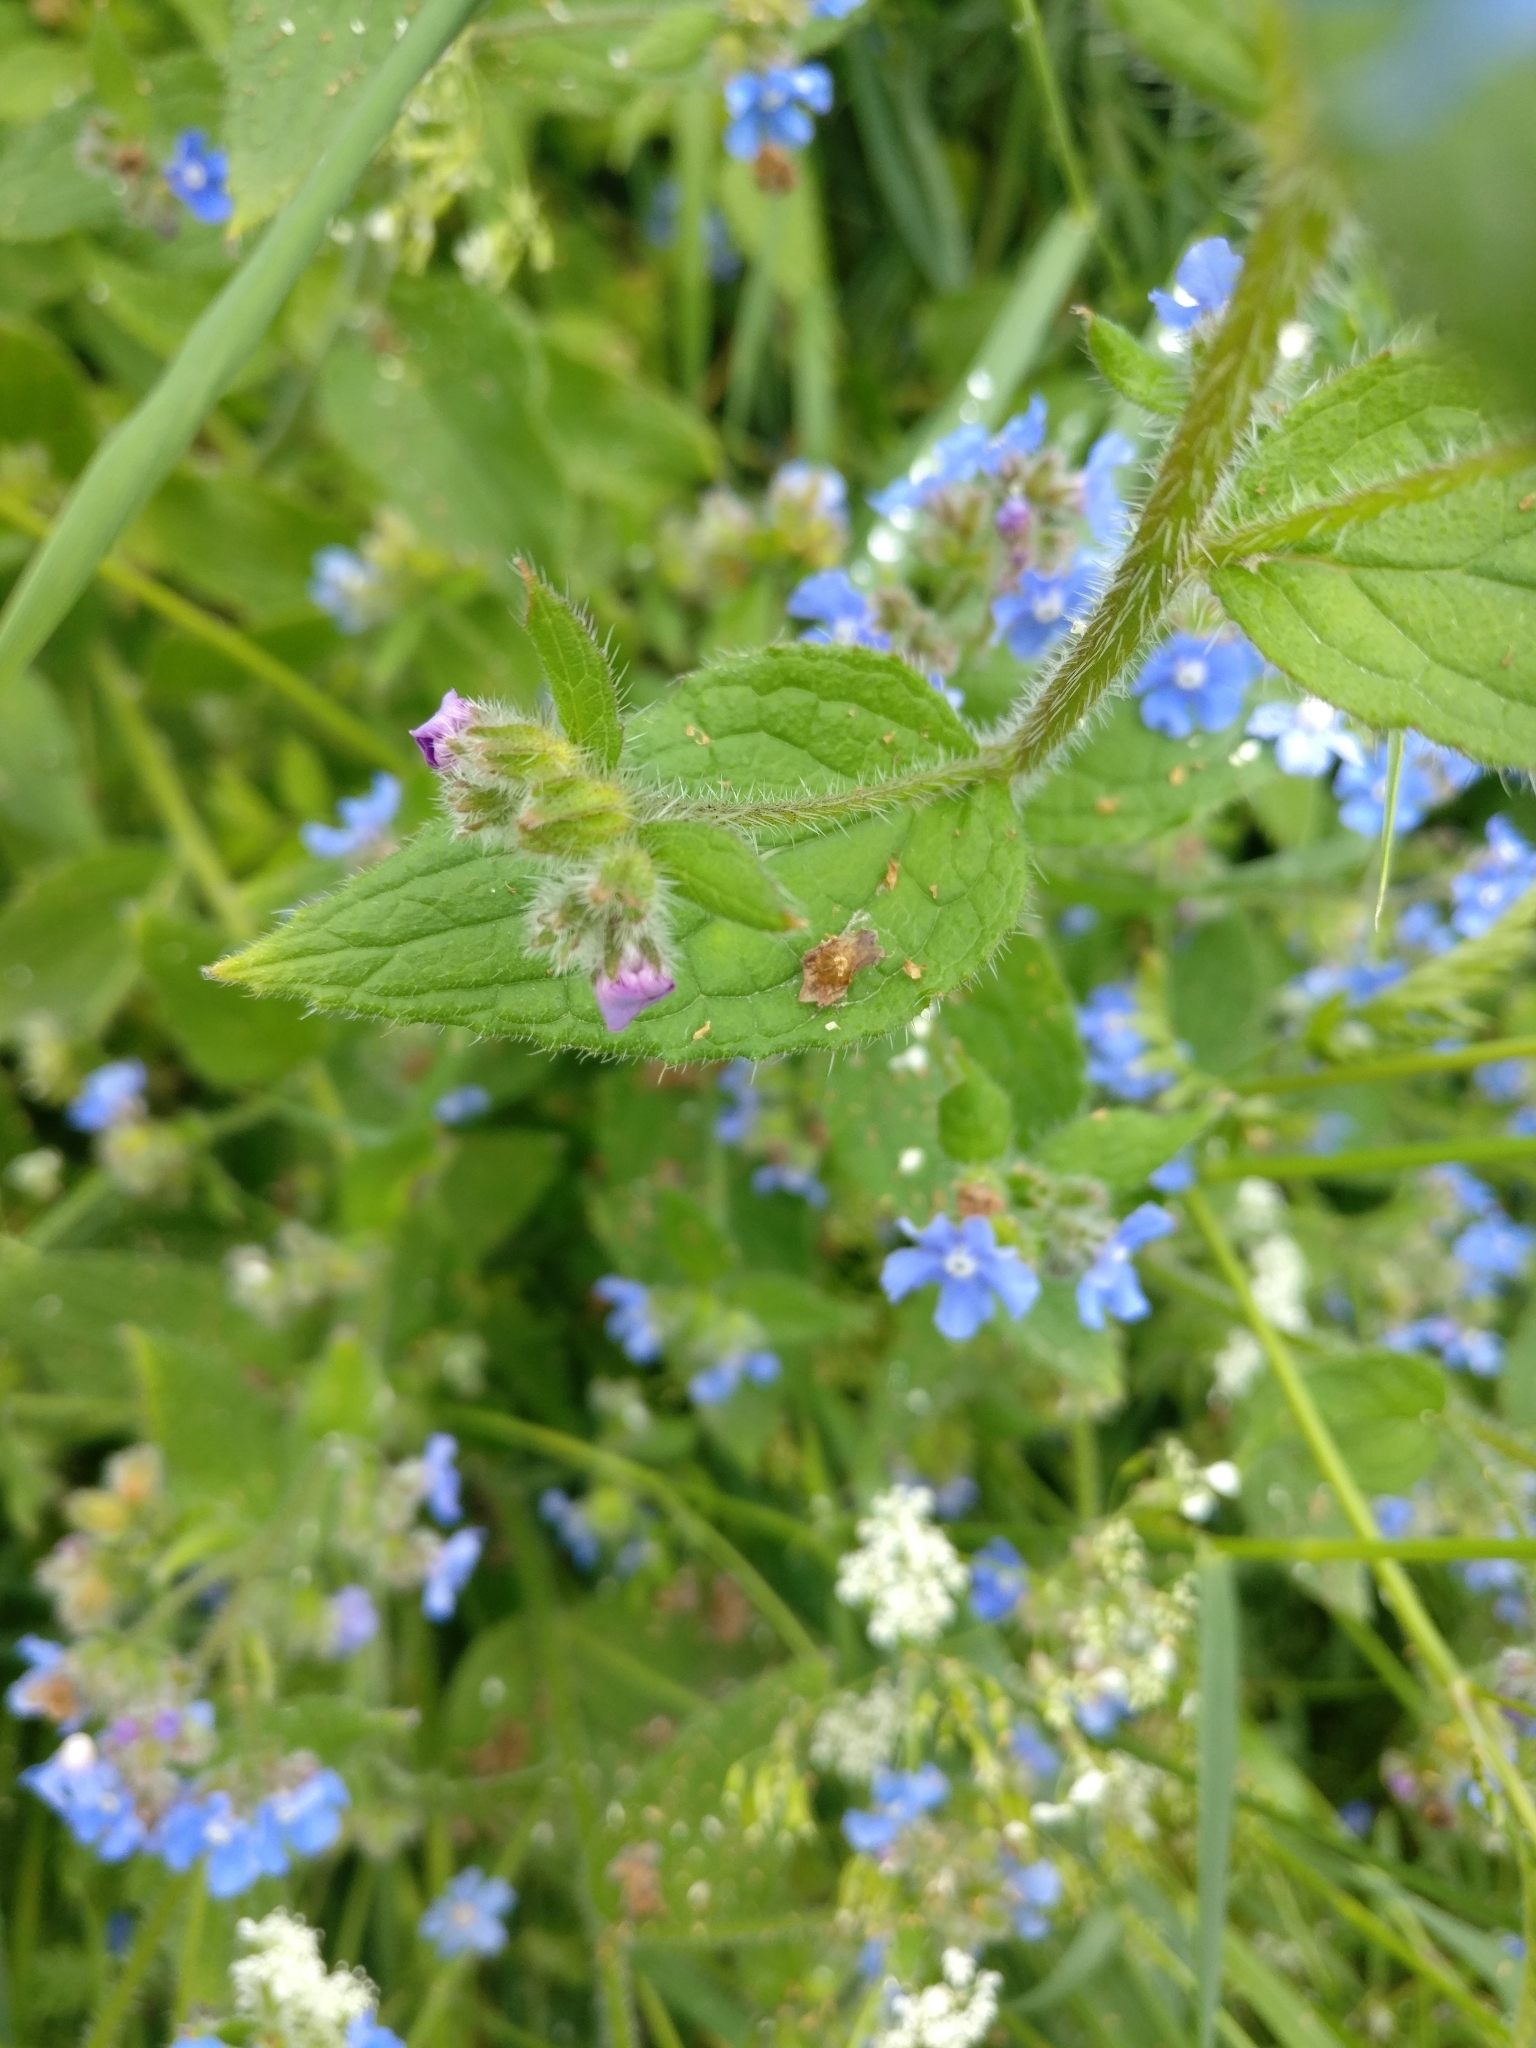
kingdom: Plantae
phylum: Tracheophyta
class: Magnoliopsida
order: Boraginales
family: Boraginaceae
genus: Pentaglottis
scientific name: Pentaglottis sempervirens
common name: Green alkanet
